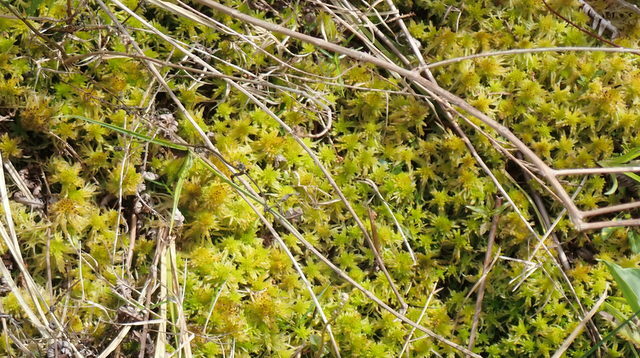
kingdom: Plantae
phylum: Bryophyta
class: Sphagnopsida
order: Sphagnales
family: Sphagnaceae
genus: Sphagnum
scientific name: Sphagnum recurvum
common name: Recurved peatmoss
